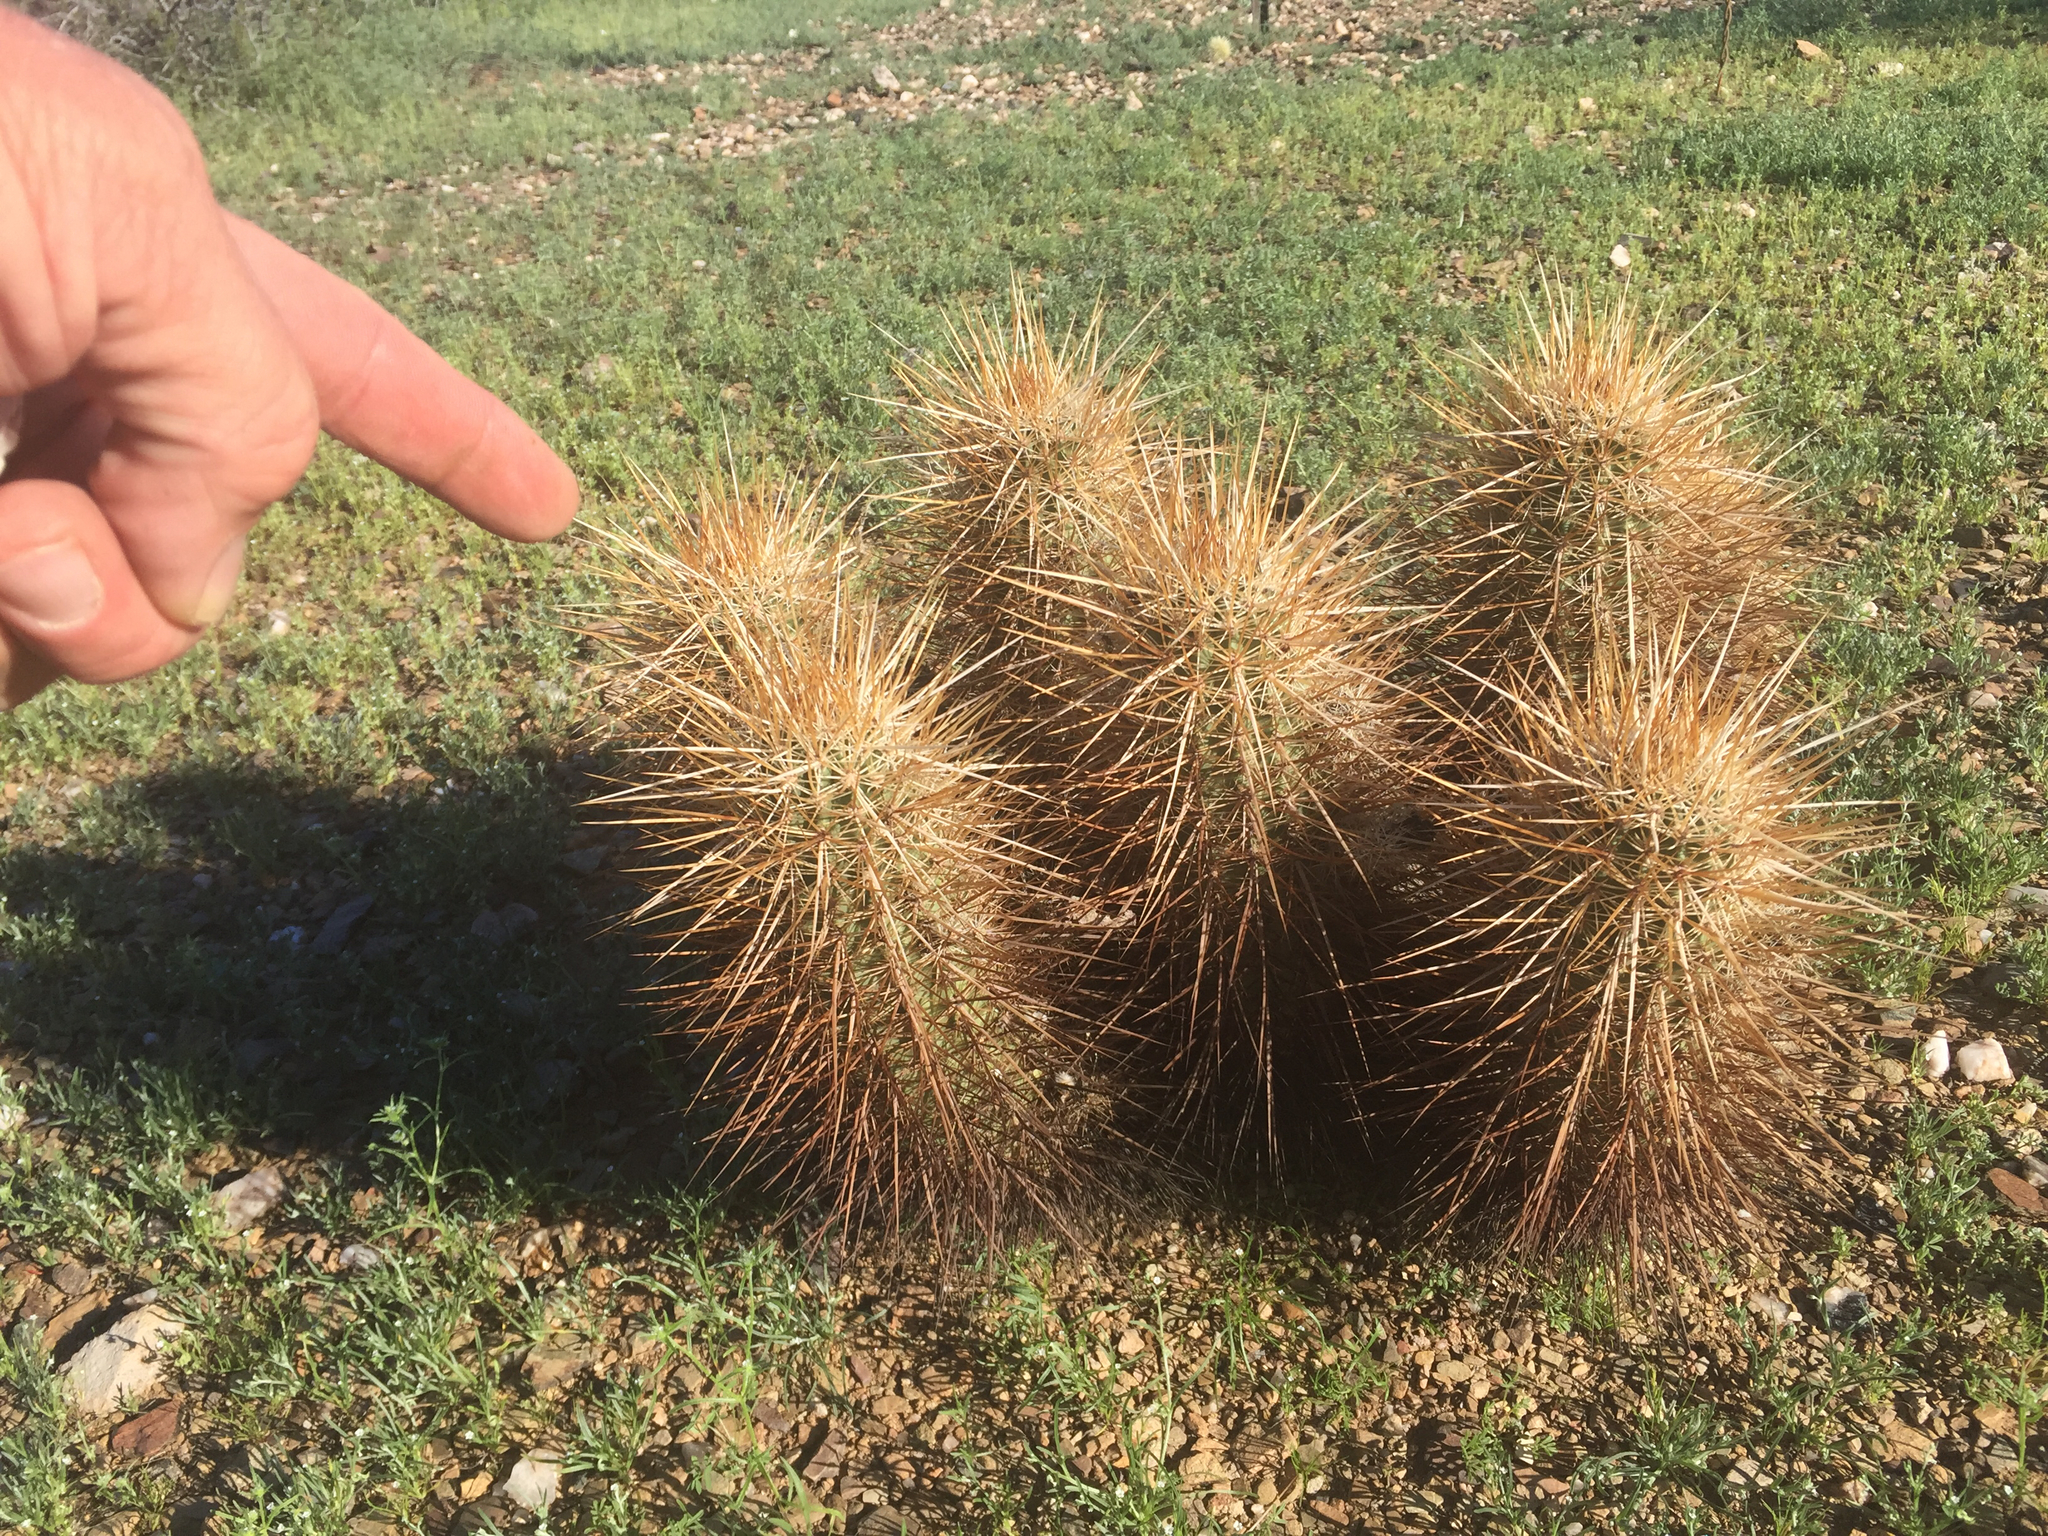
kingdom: Plantae
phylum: Tracheophyta
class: Magnoliopsida
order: Caryophyllales
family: Cactaceae
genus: Echinocereus
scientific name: Echinocereus engelmannii
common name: Engelmann's hedgehog cactus
